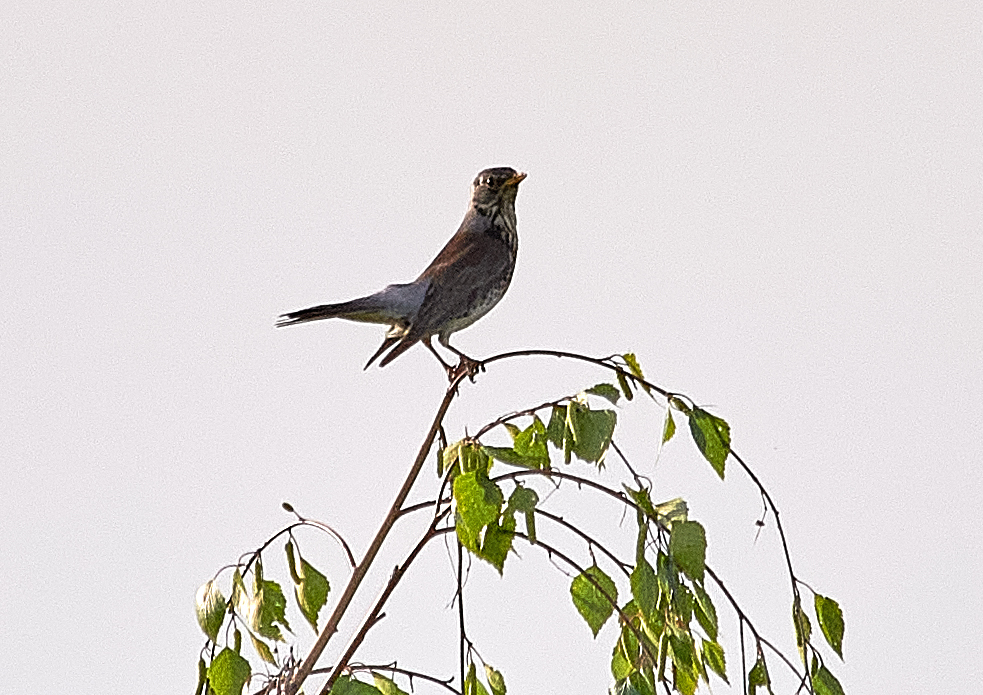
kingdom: Animalia
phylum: Chordata
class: Aves
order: Passeriformes
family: Turdidae
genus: Turdus
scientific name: Turdus pilaris
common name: Fieldfare
